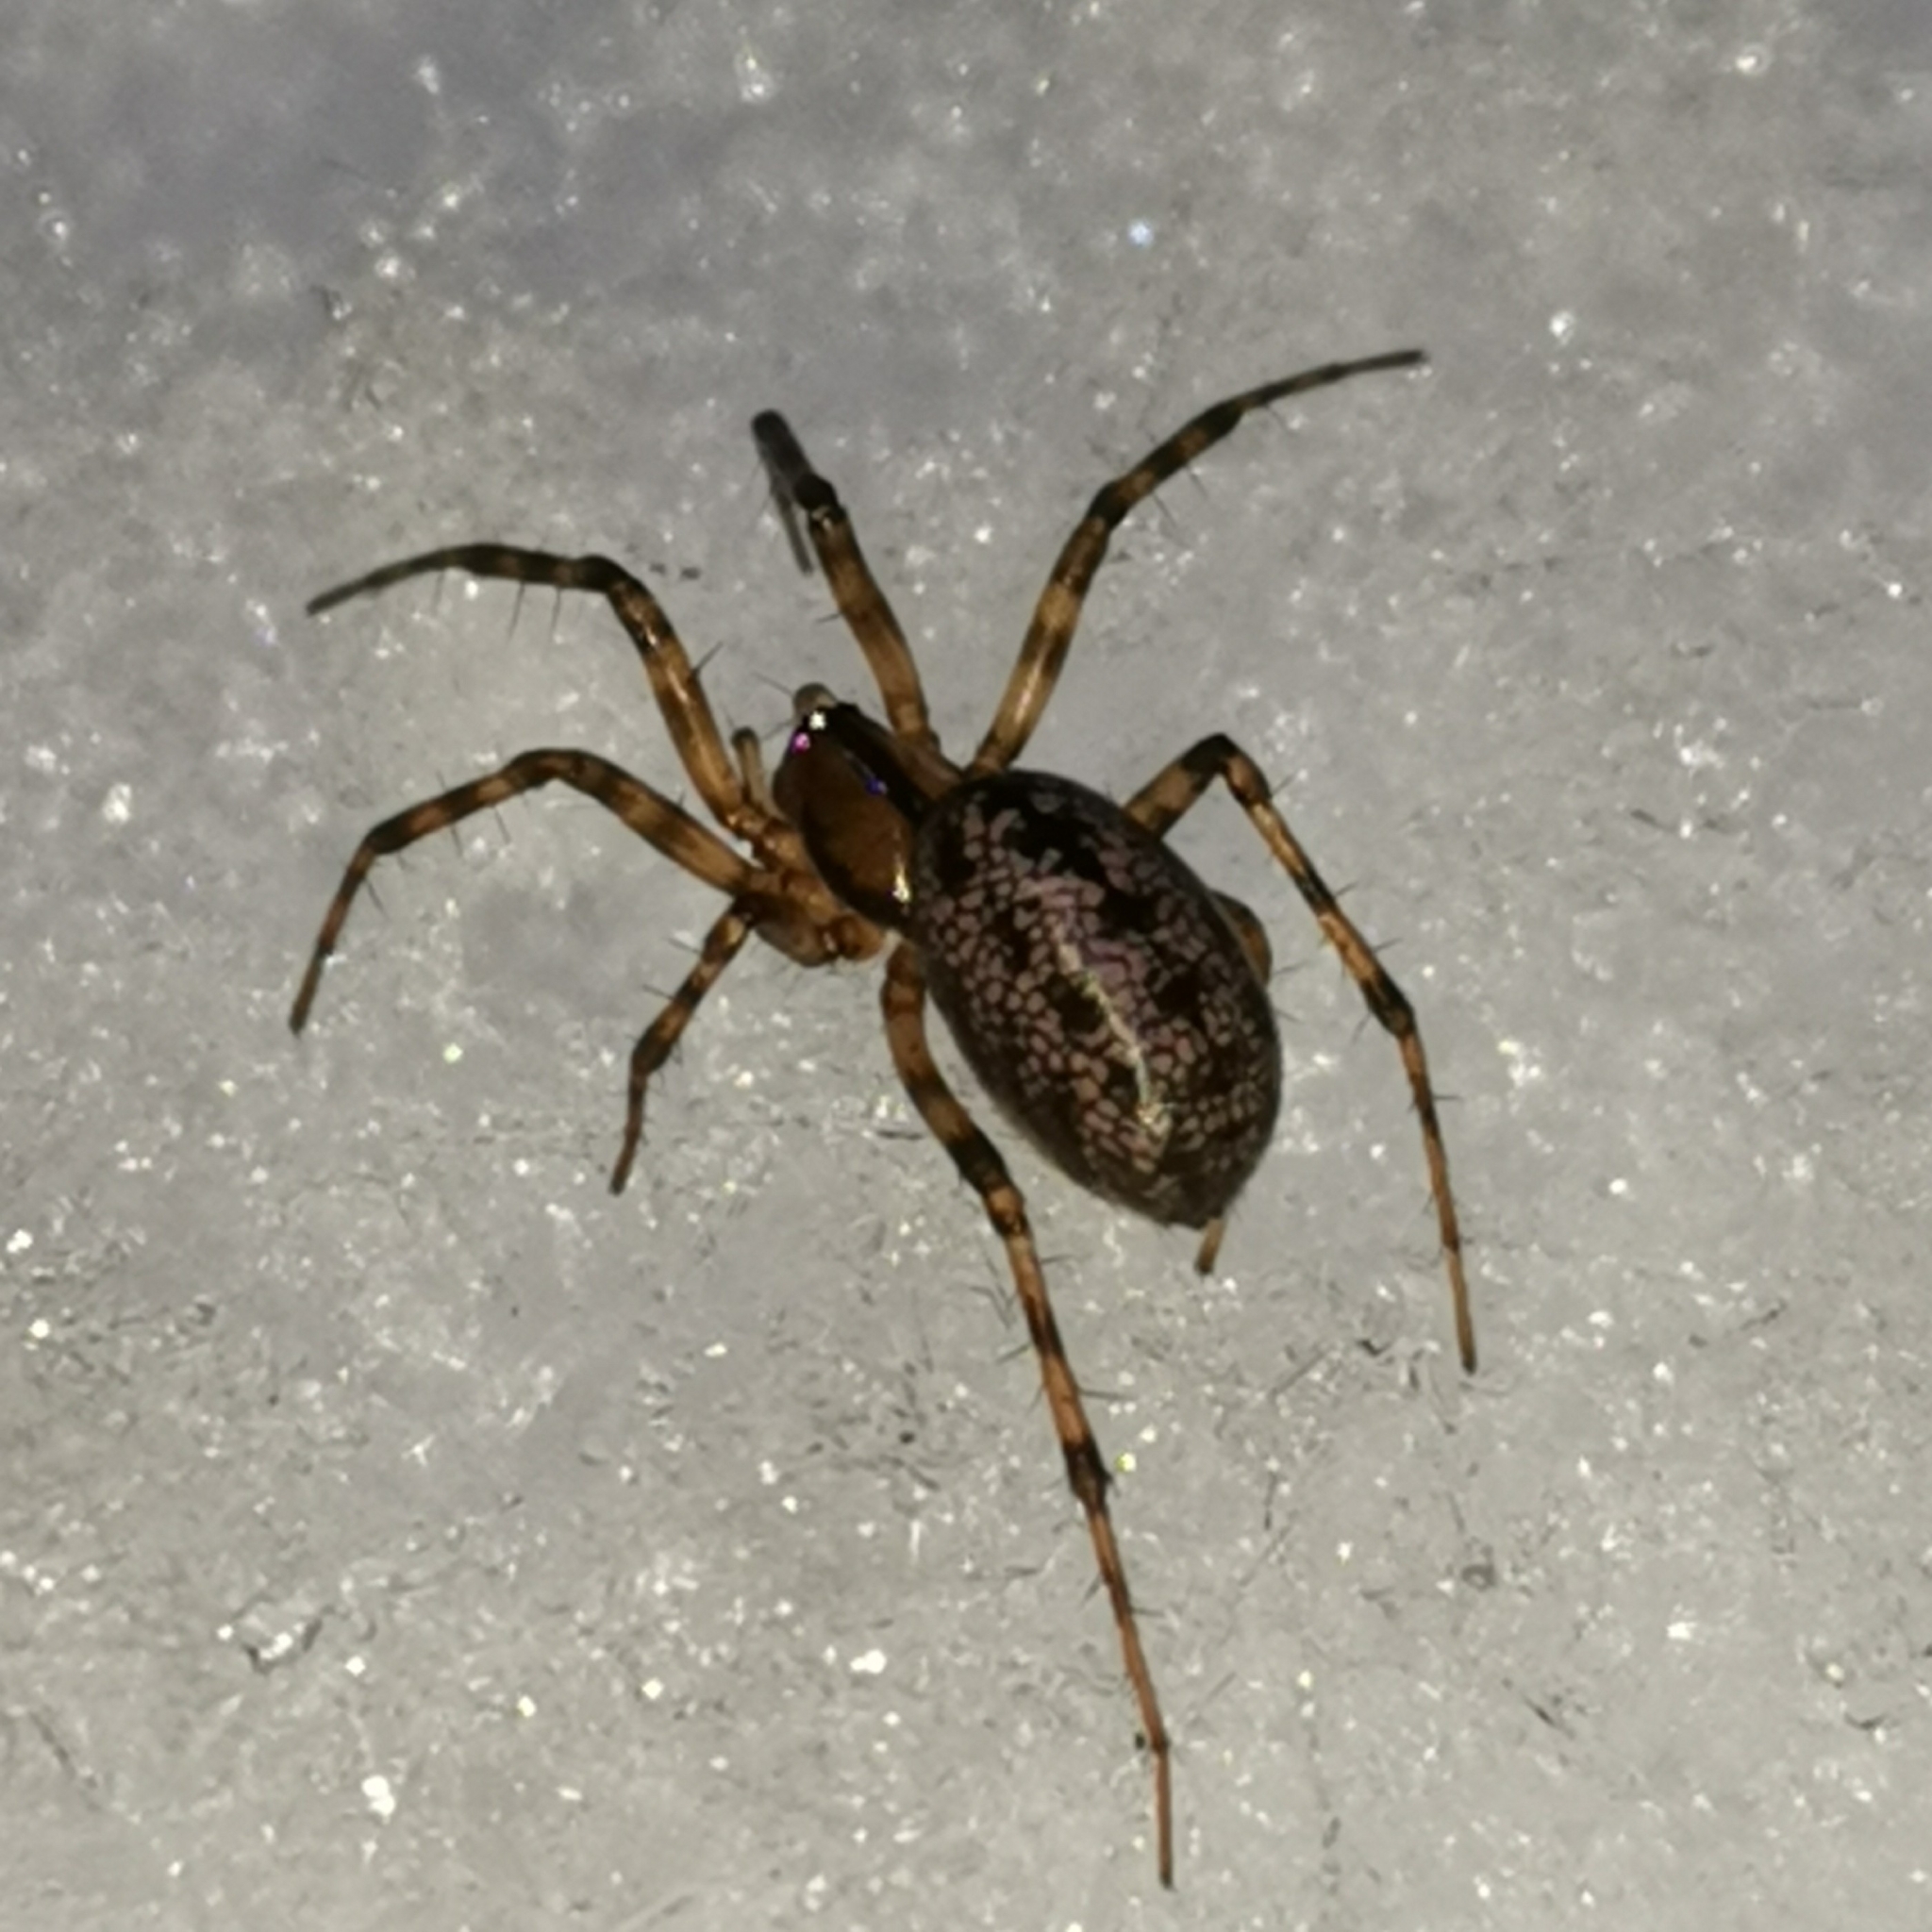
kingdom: Animalia
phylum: Arthropoda
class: Arachnida
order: Araneae
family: Linyphiidae
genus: Stemonyphantes
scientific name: Stemonyphantes lineatus
